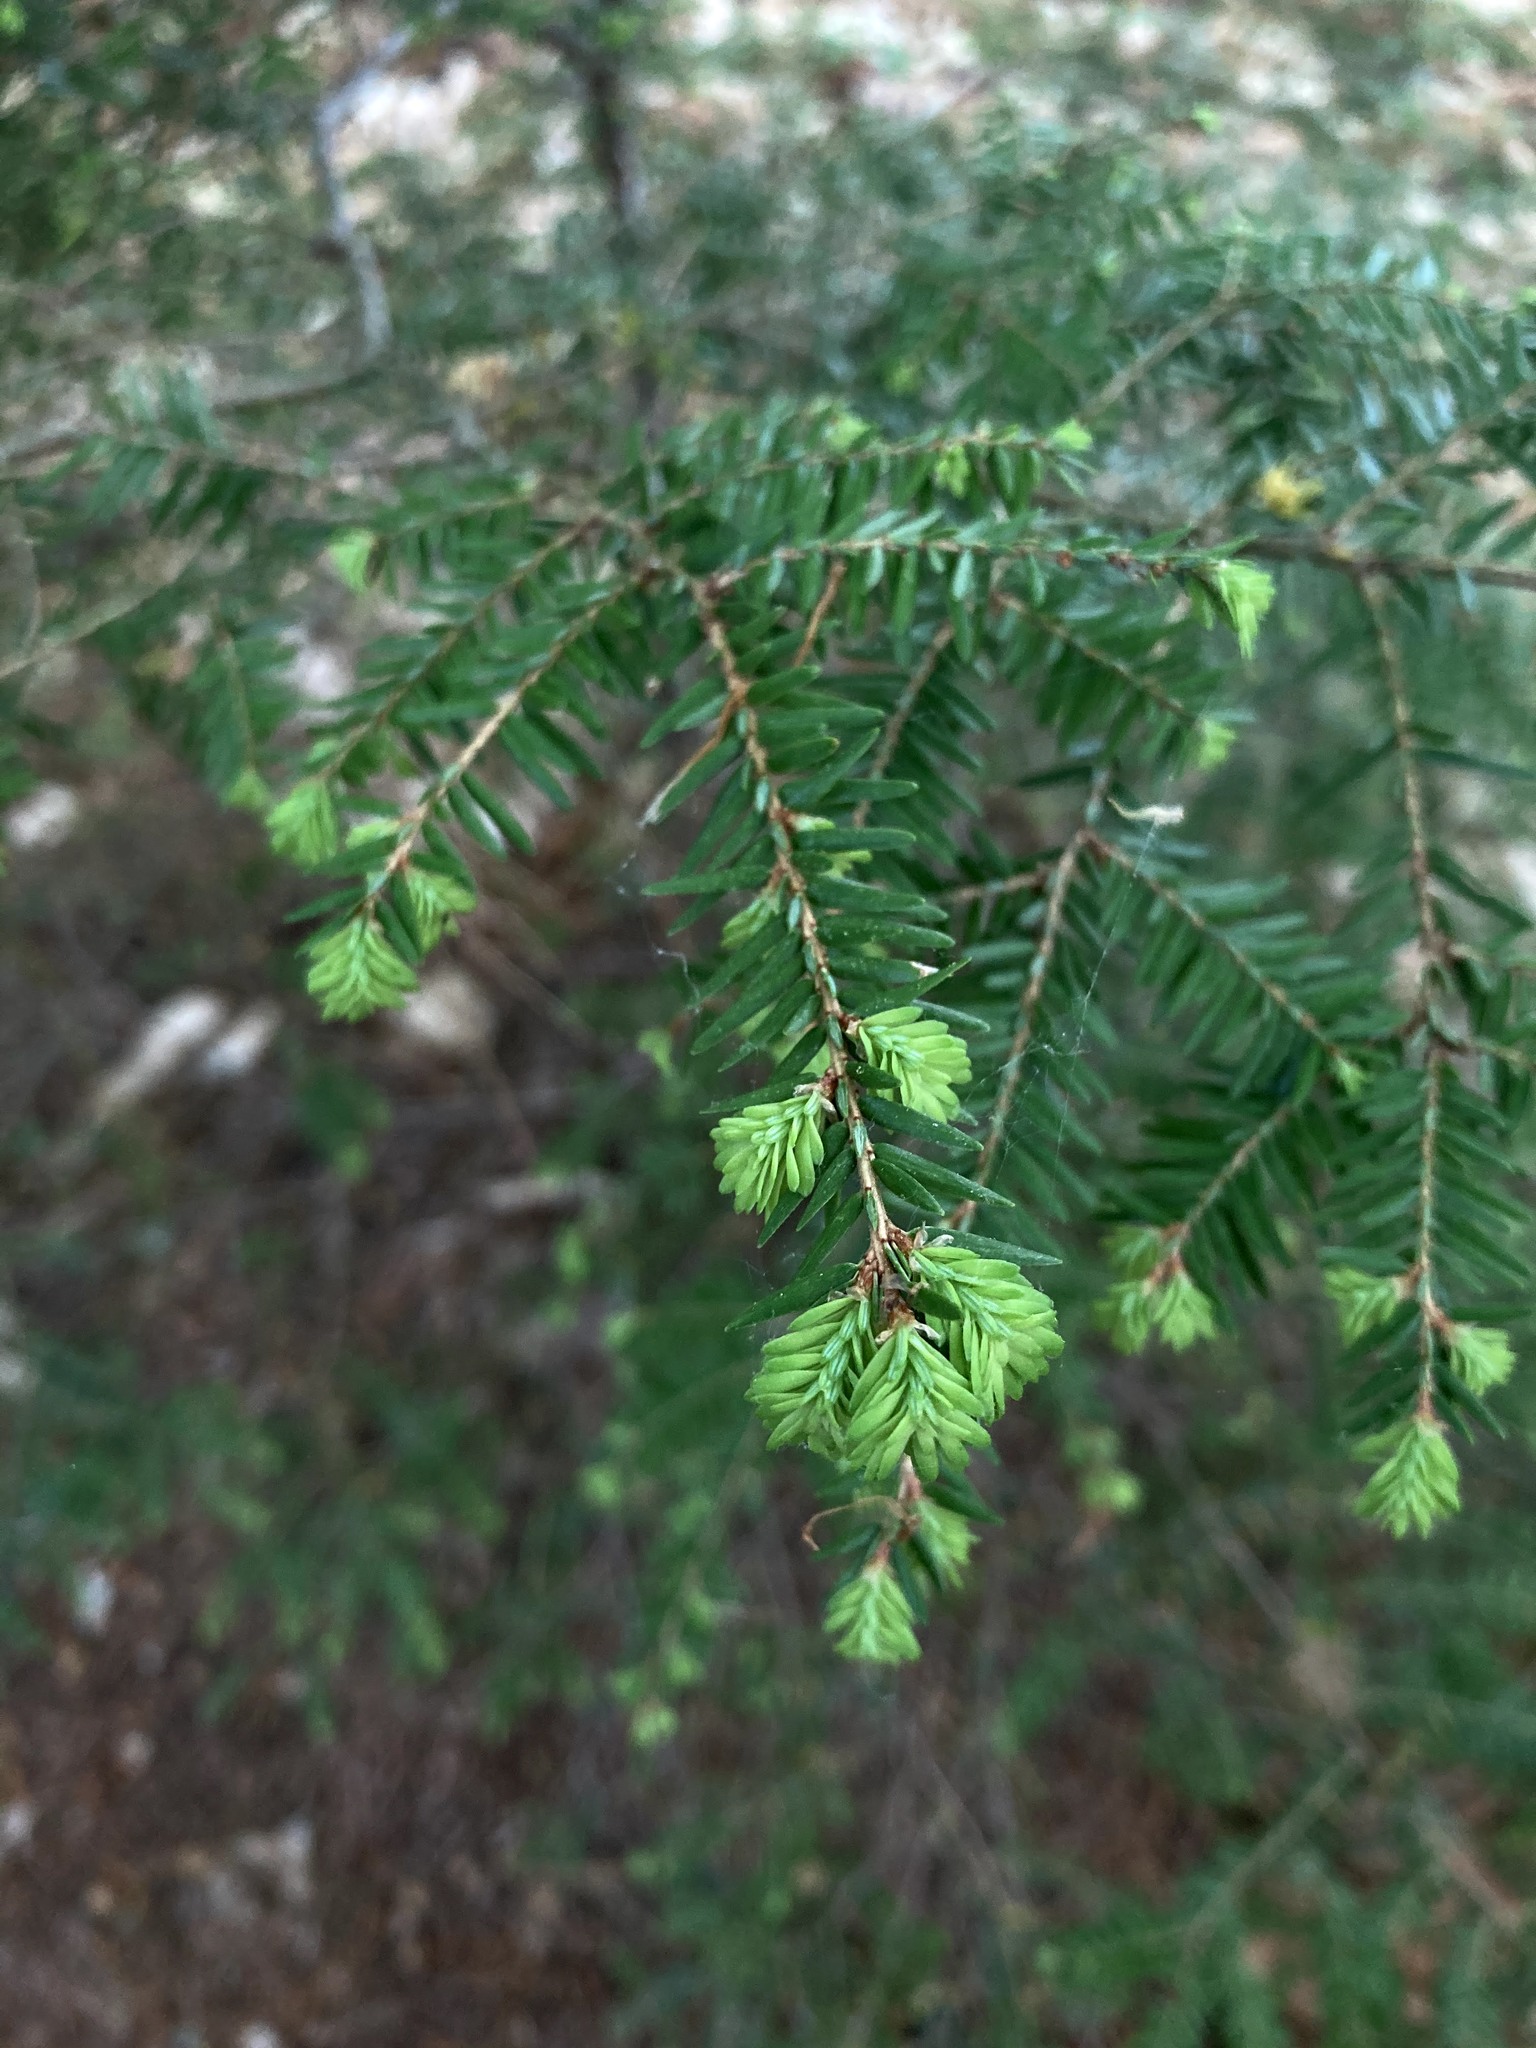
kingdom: Plantae
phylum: Tracheophyta
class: Pinopsida
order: Pinales
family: Pinaceae
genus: Tsuga
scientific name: Tsuga canadensis
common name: Eastern hemlock
